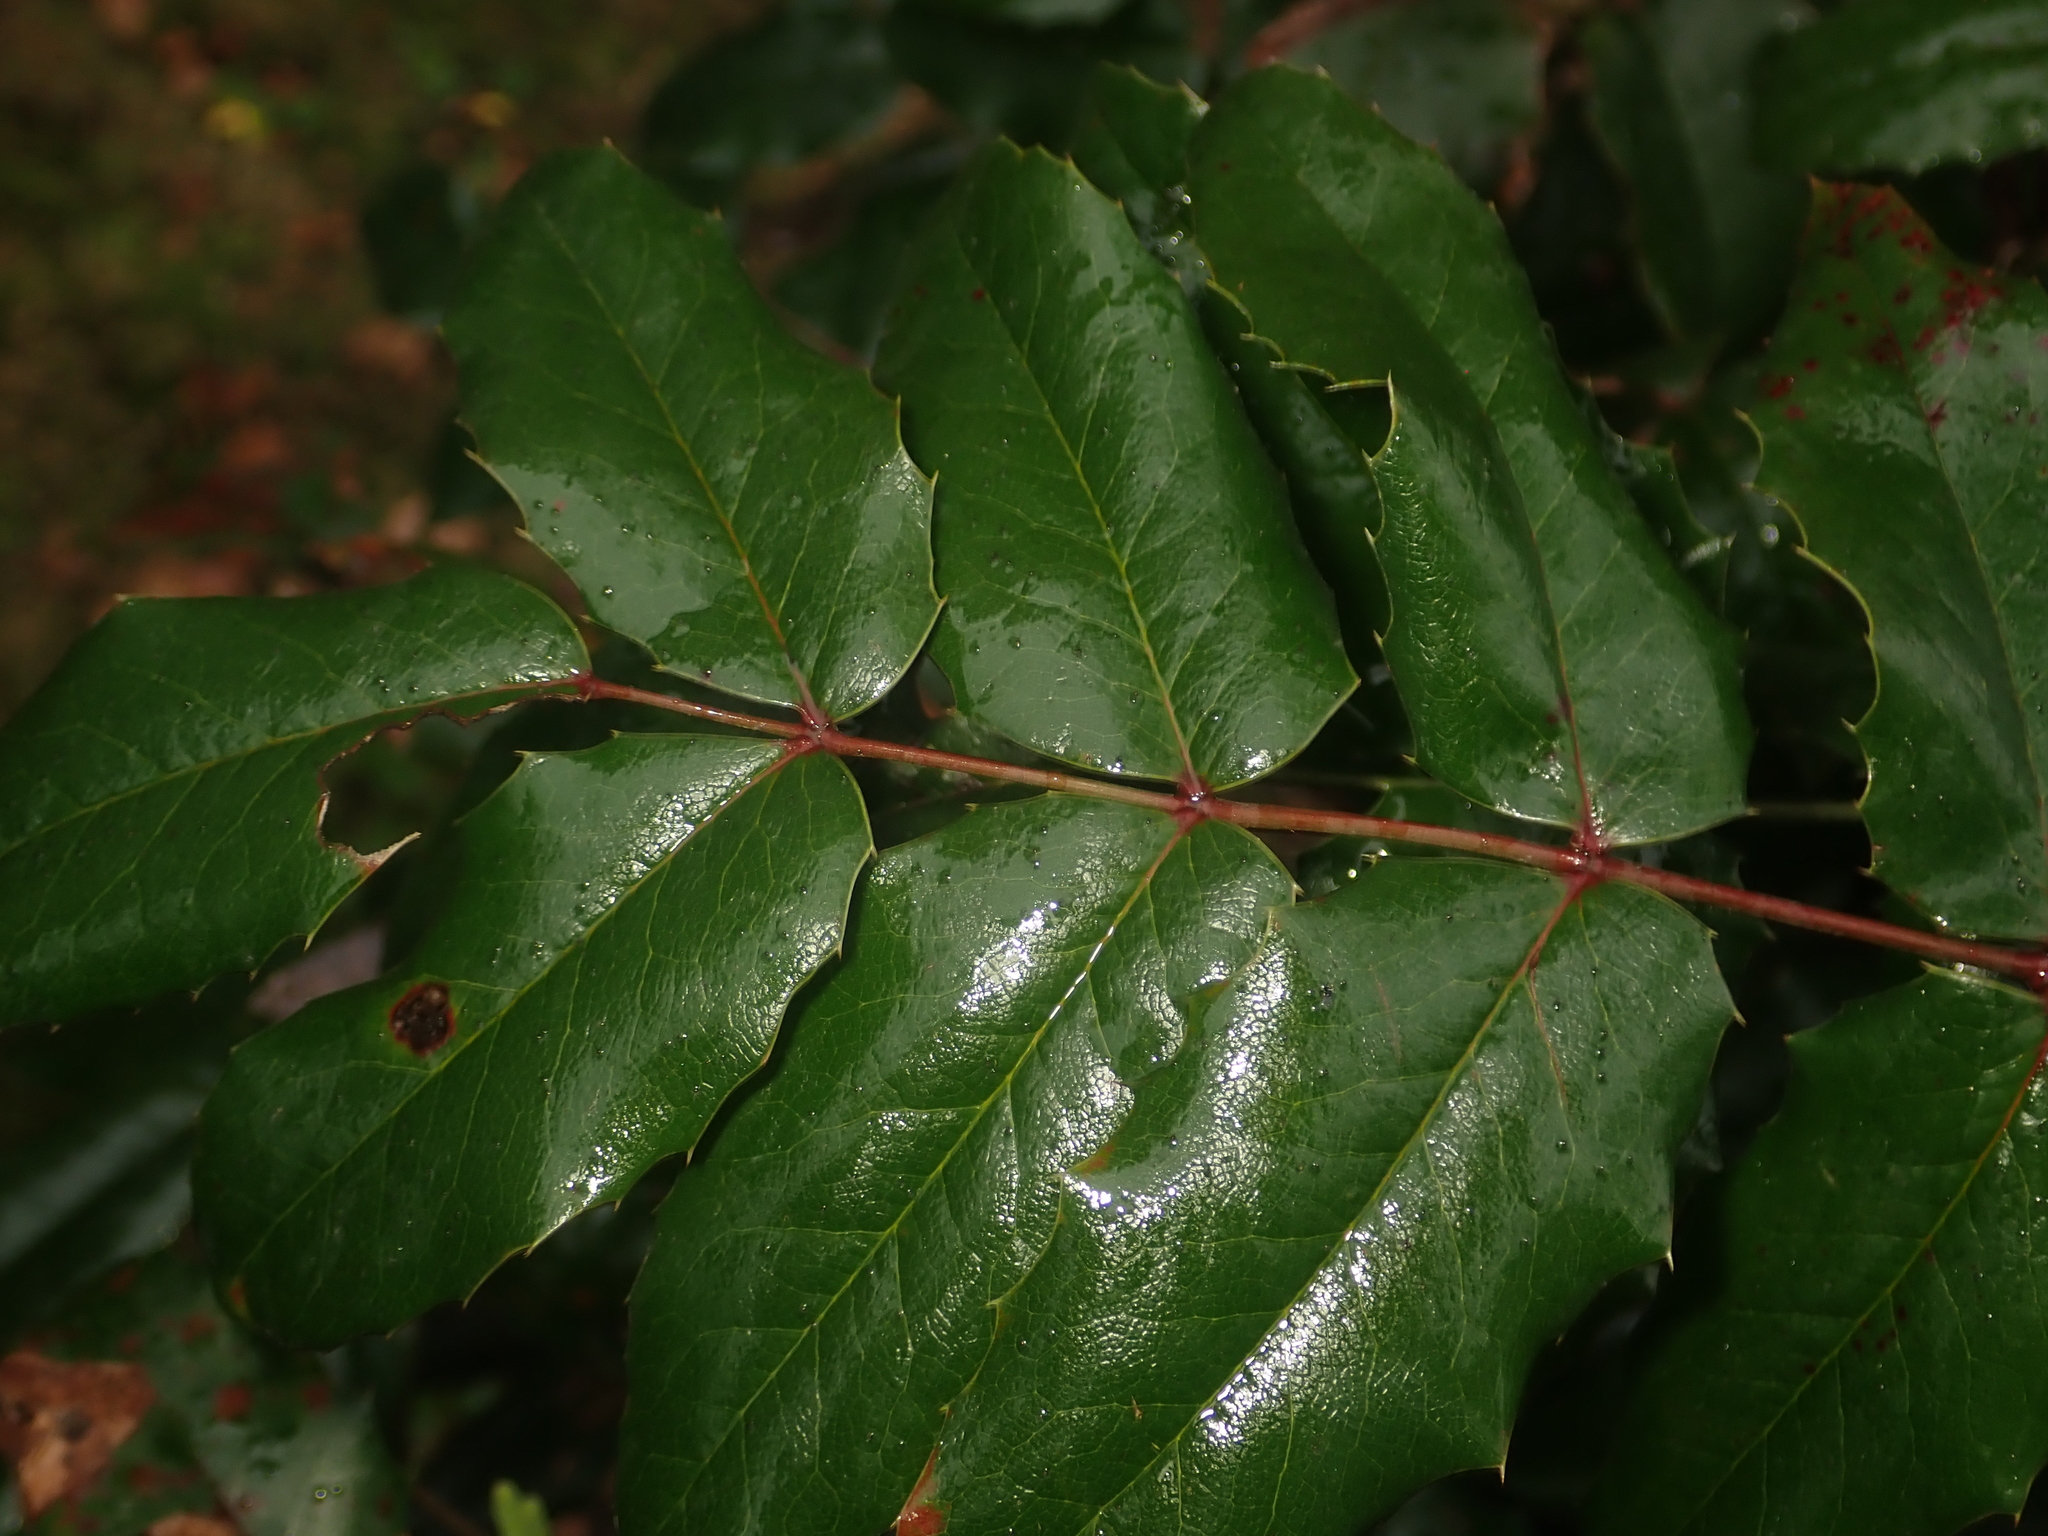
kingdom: Plantae
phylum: Tracheophyta
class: Magnoliopsida
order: Ranunculales
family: Berberidaceae
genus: Mahonia
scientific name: Mahonia aquifolium
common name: Oregon-grape
